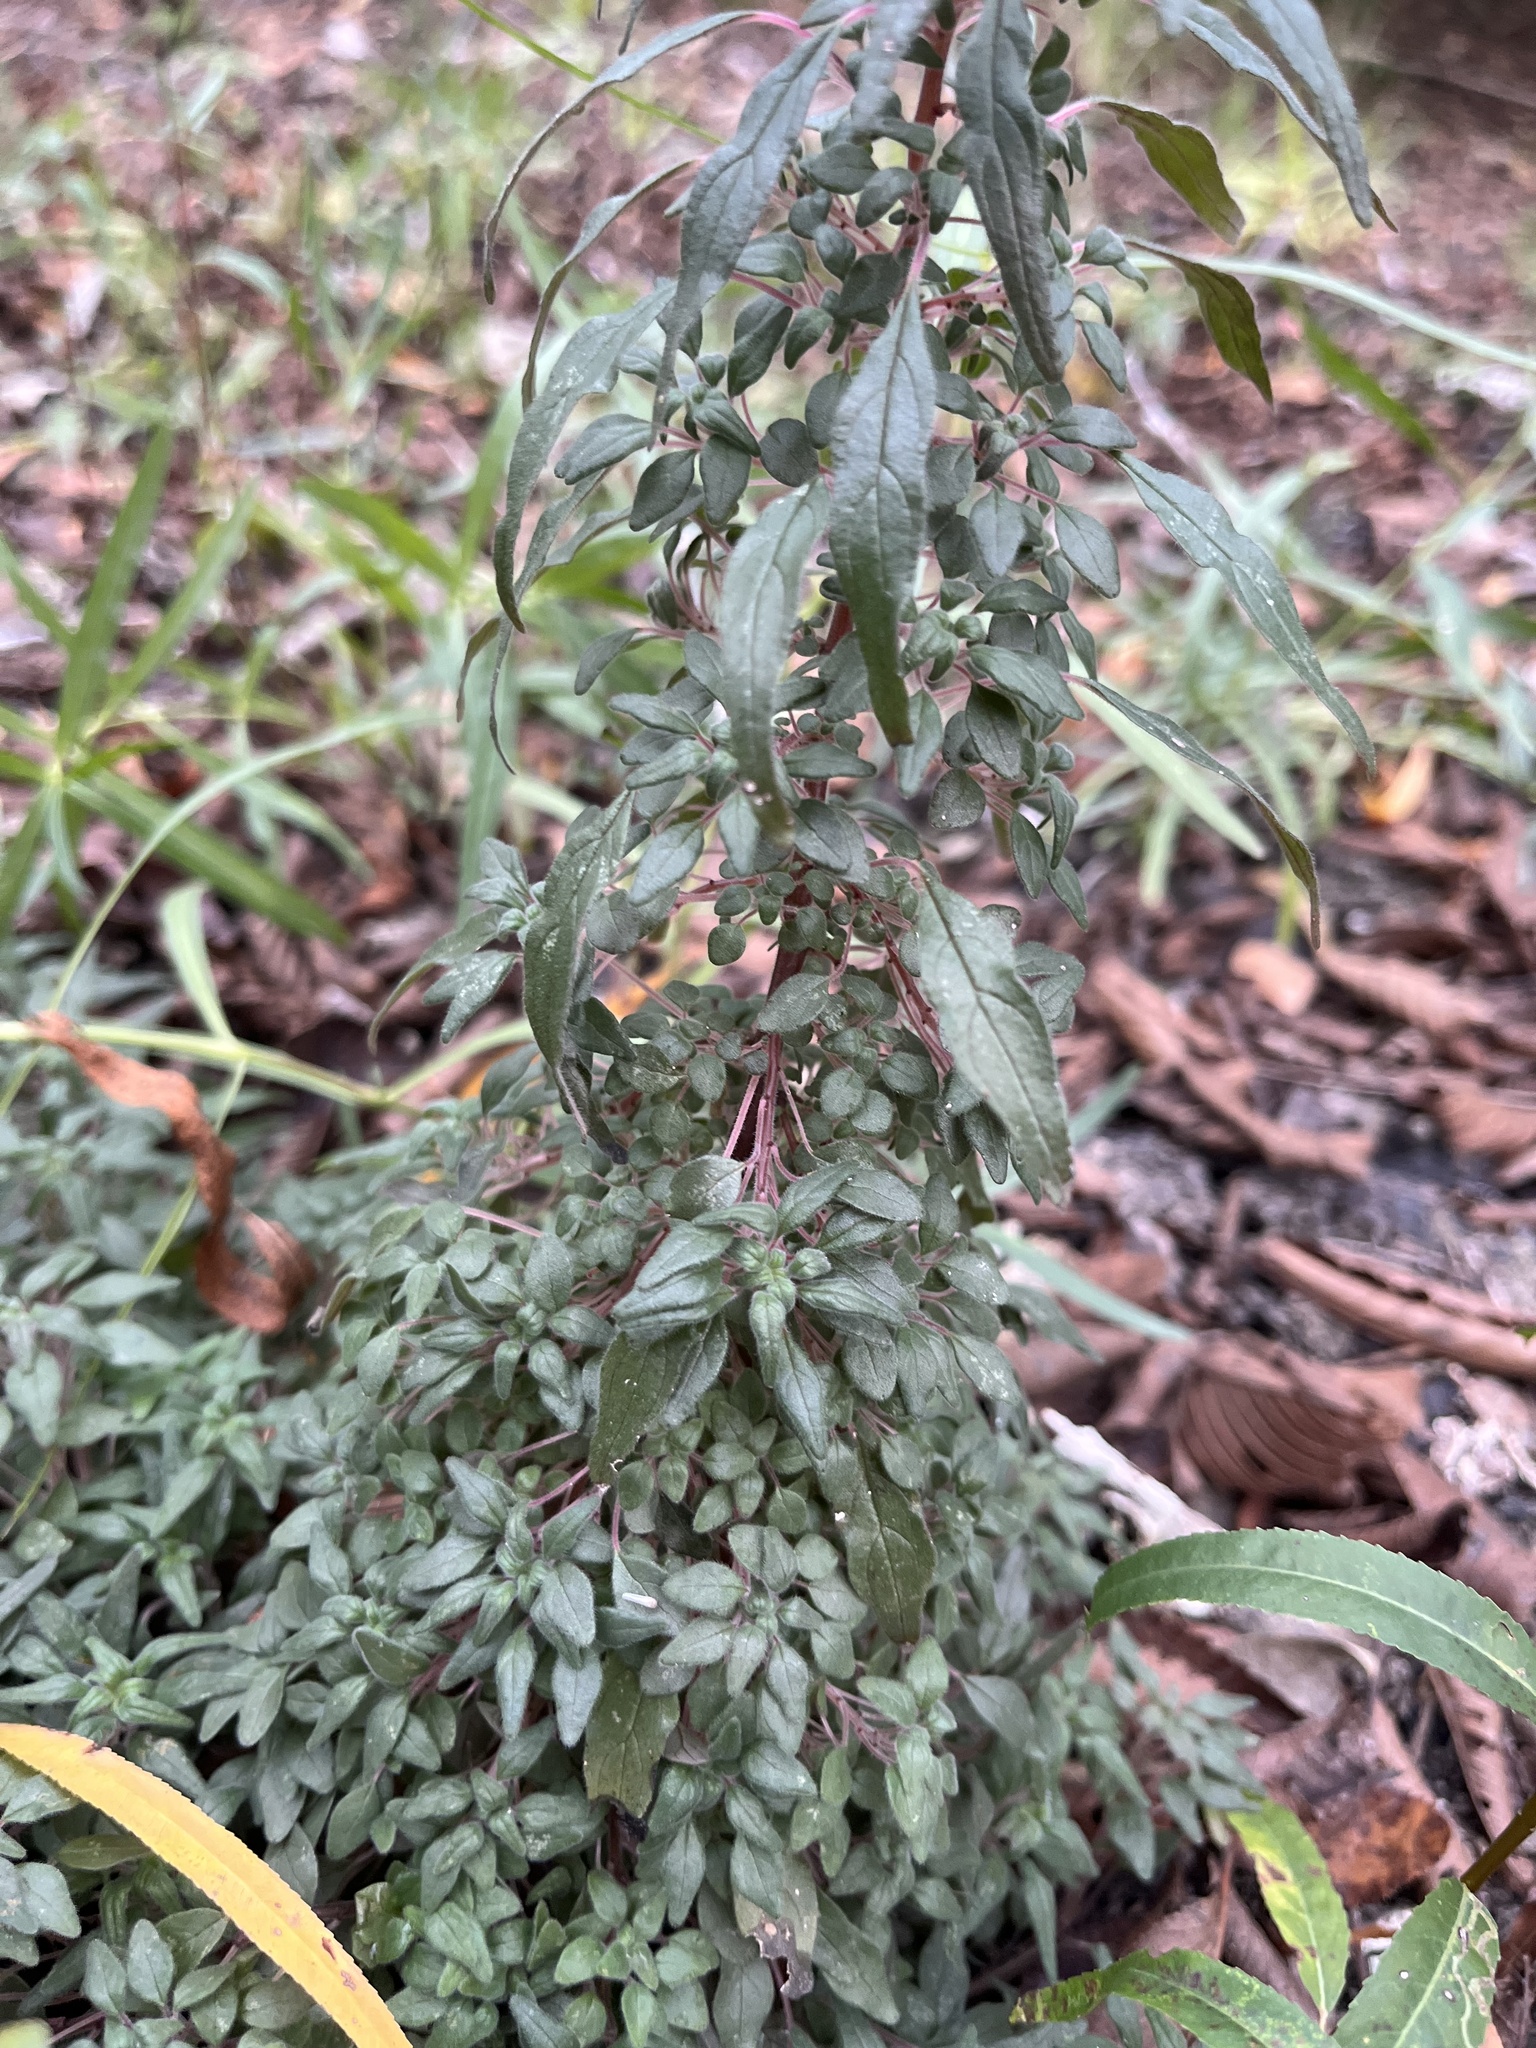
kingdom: Plantae
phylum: Tracheophyta
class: Magnoliopsida
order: Rosales
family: Urticaceae
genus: Parietaria
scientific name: Parietaria pensylvanica
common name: Pennsylvania pellitory
